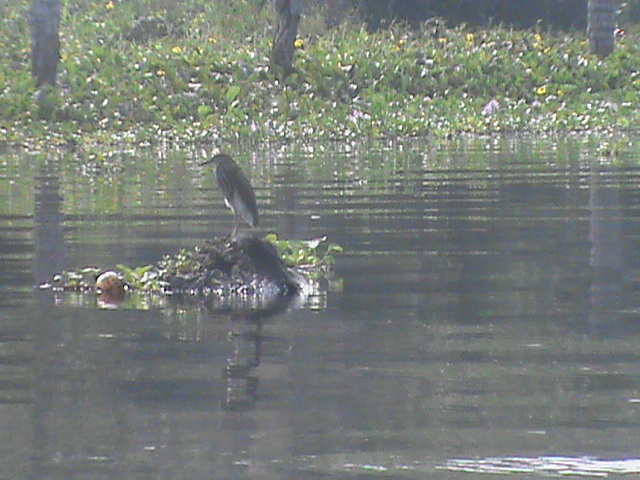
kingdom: Animalia
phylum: Chordata
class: Aves
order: Pelecaniformes
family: Ardeidae
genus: Ardeola
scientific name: Ardeola grayii
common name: Indian pond heron
